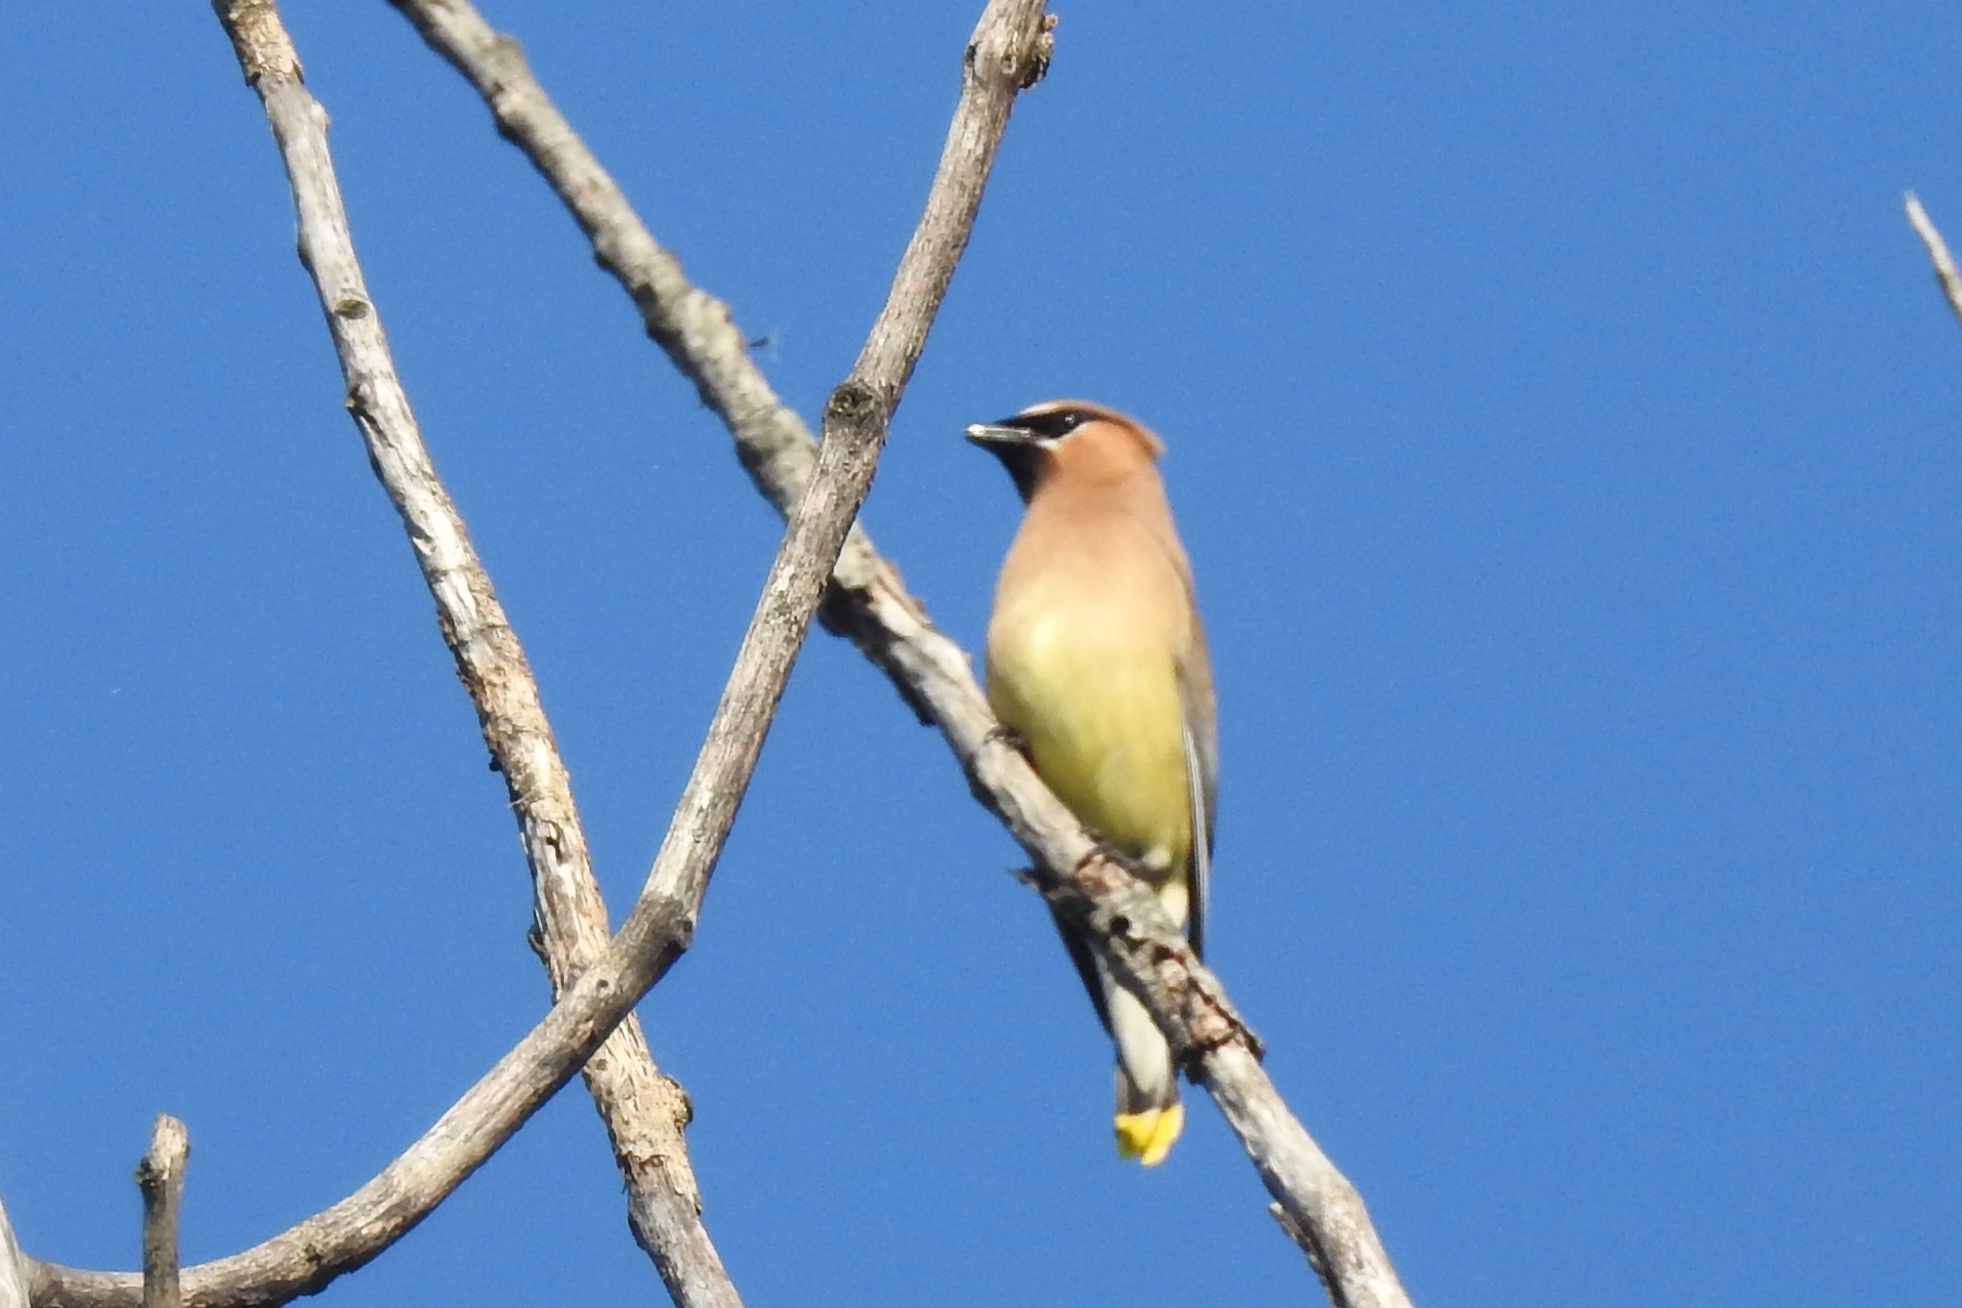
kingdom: Animalia
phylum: Chordata
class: Aves
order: Passeriformes
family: Bombycillidae
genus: Bombycilla
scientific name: Bombycilla cedrorum
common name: Cedar waxwing
